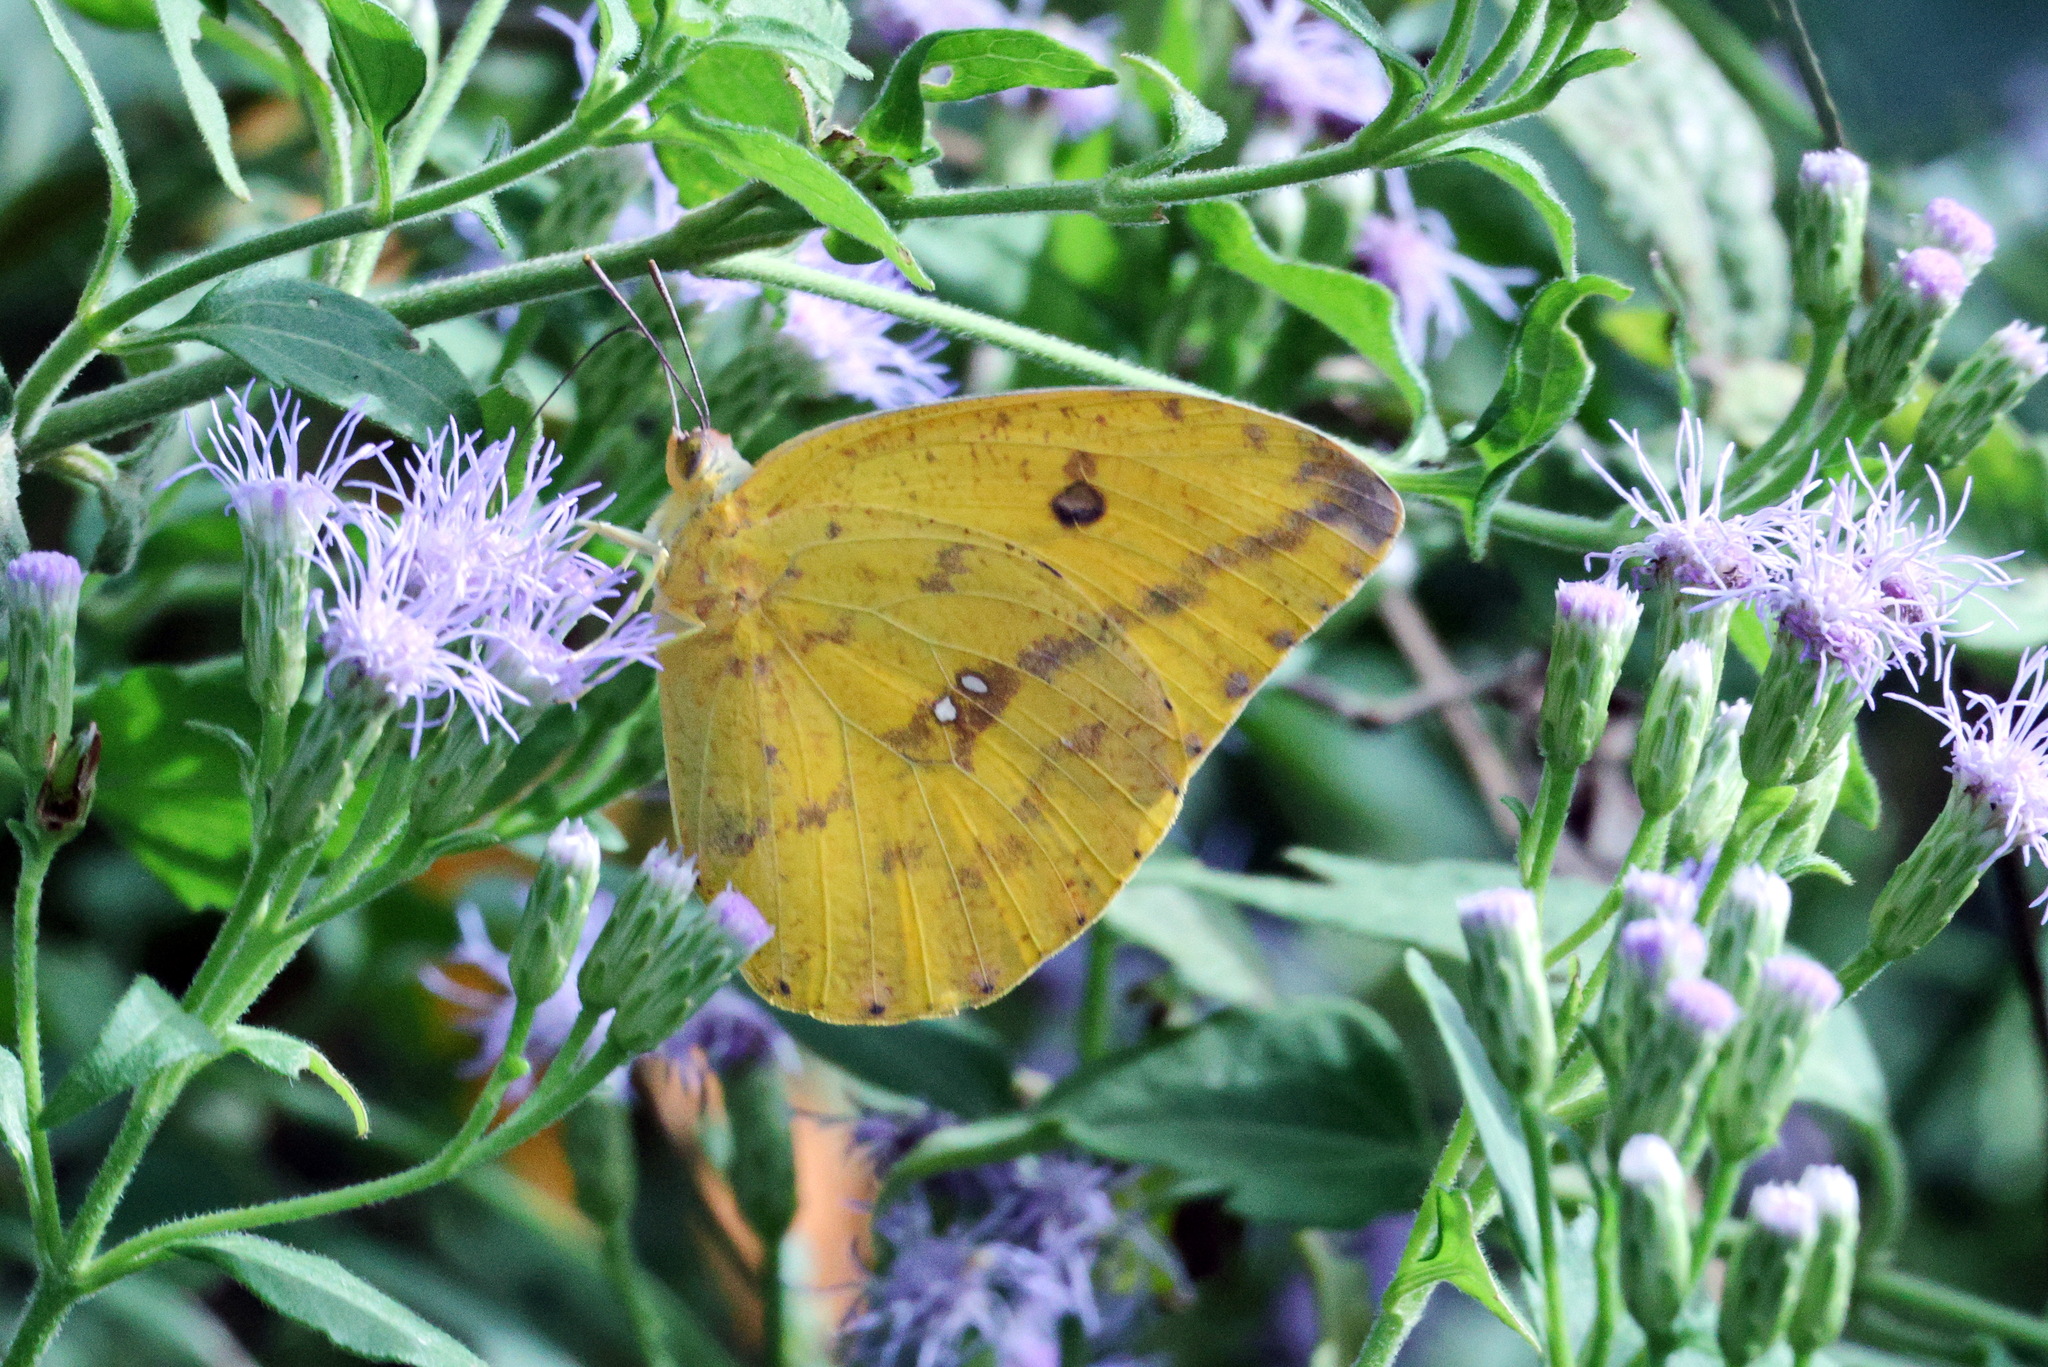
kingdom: Animalia
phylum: Arthropoda
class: Insecta
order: Lepidoptera
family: Pieridae
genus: Phoebis
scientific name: Phoebis agarithe
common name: Large orange sulphur
